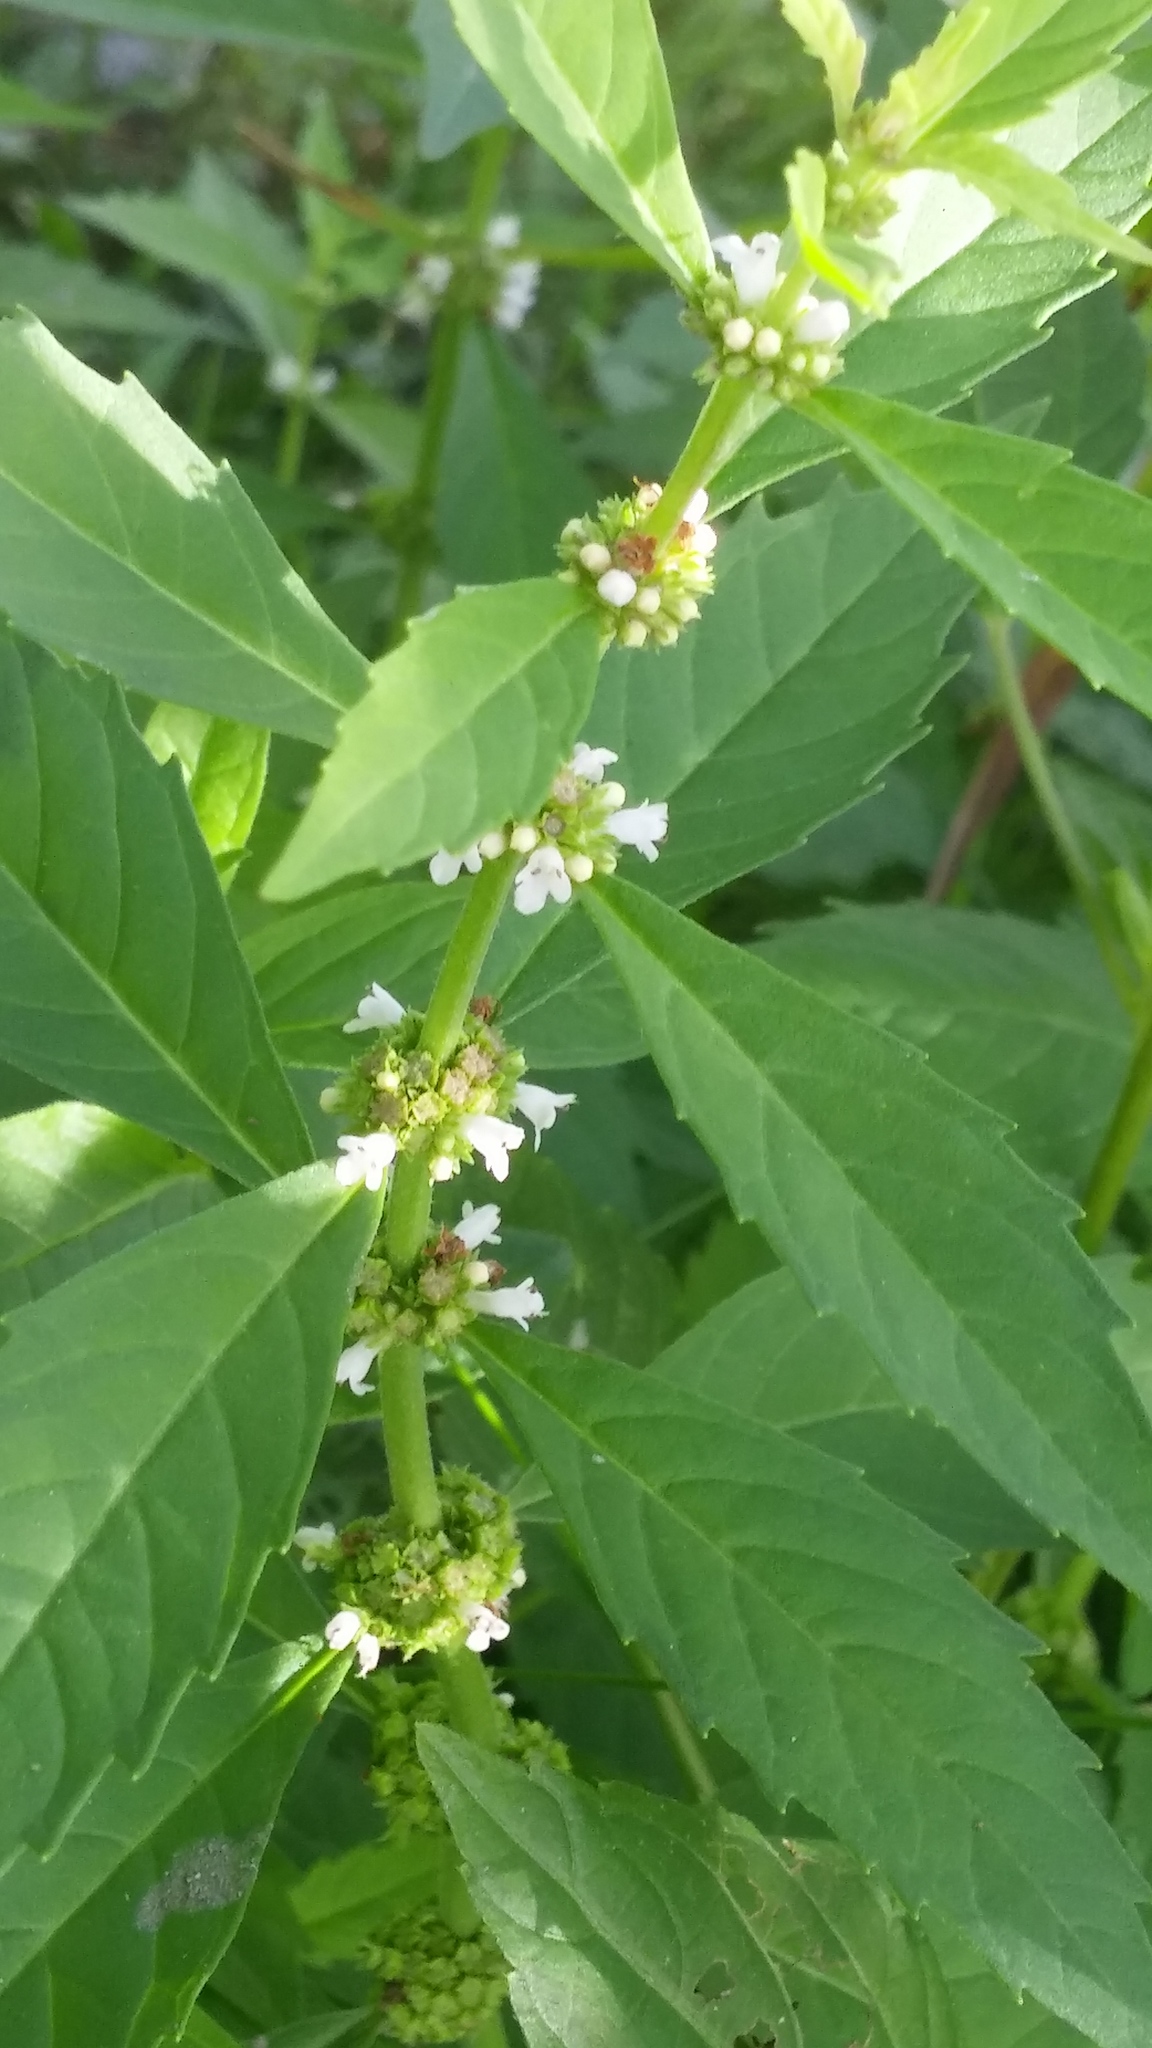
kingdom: Plantae
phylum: Tracheophyta
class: Magnoliopsida
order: Lamiales
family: Lamiaceae
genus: Lycopus
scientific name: Lycopus uniflorus
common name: Northern bugleweed
